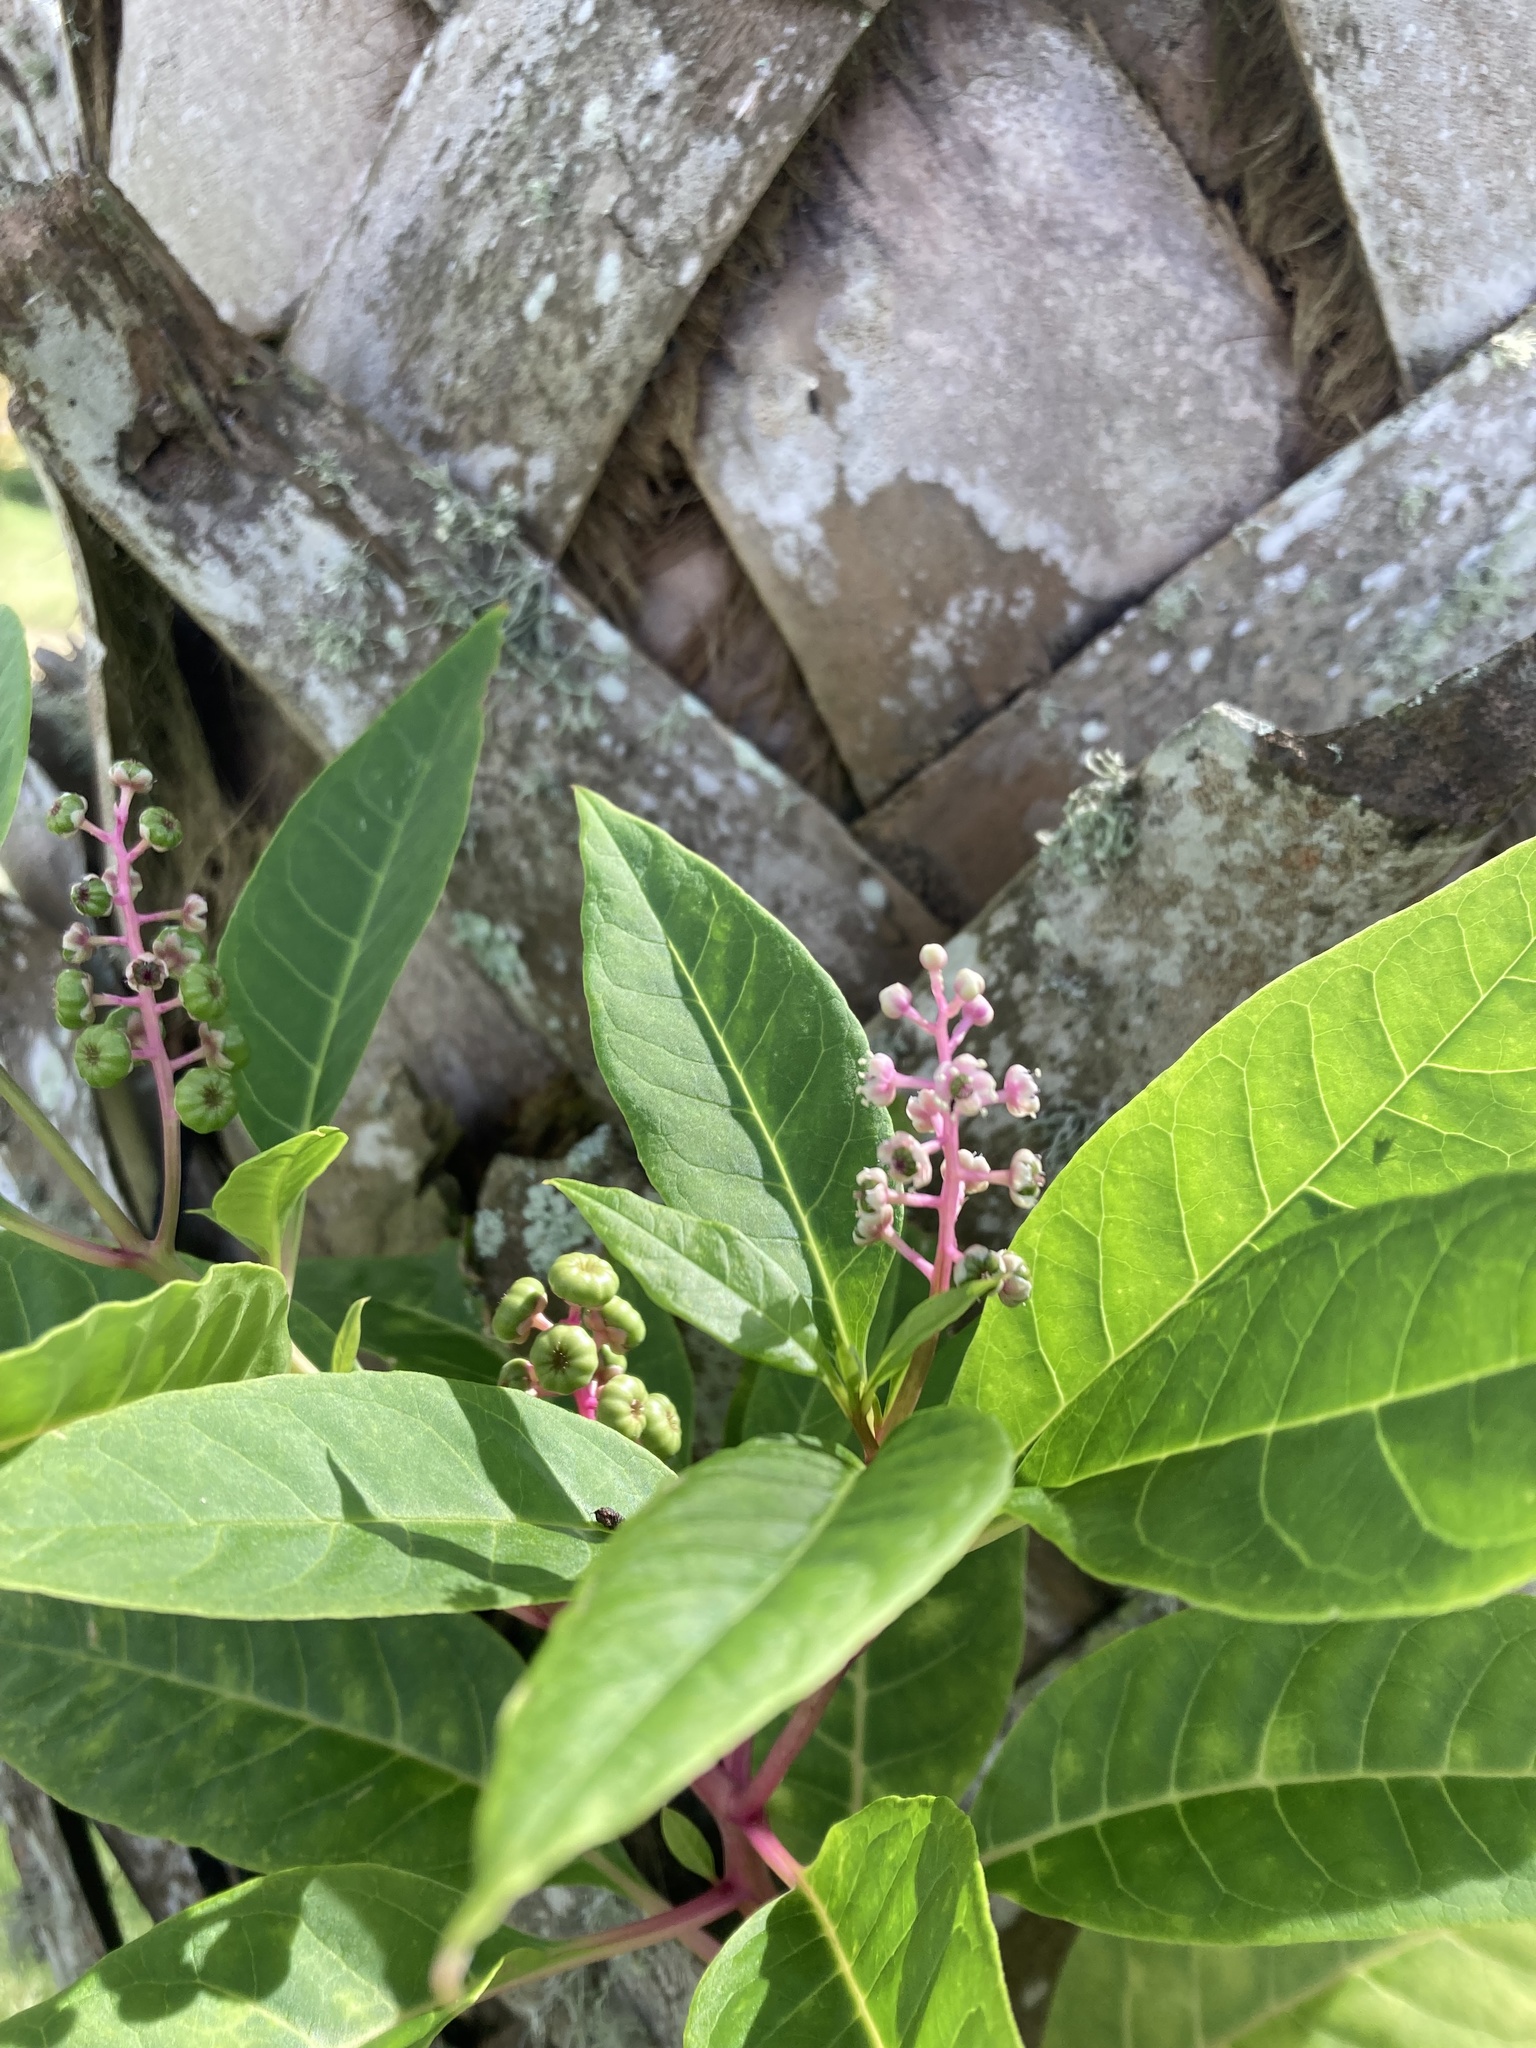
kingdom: Plantae
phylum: Tracheophyta
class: Magnoliopsida
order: Caryophyllales
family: Phytolaccaceae
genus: Phytolacca
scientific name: Phytolacca americana
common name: American pokeweed
